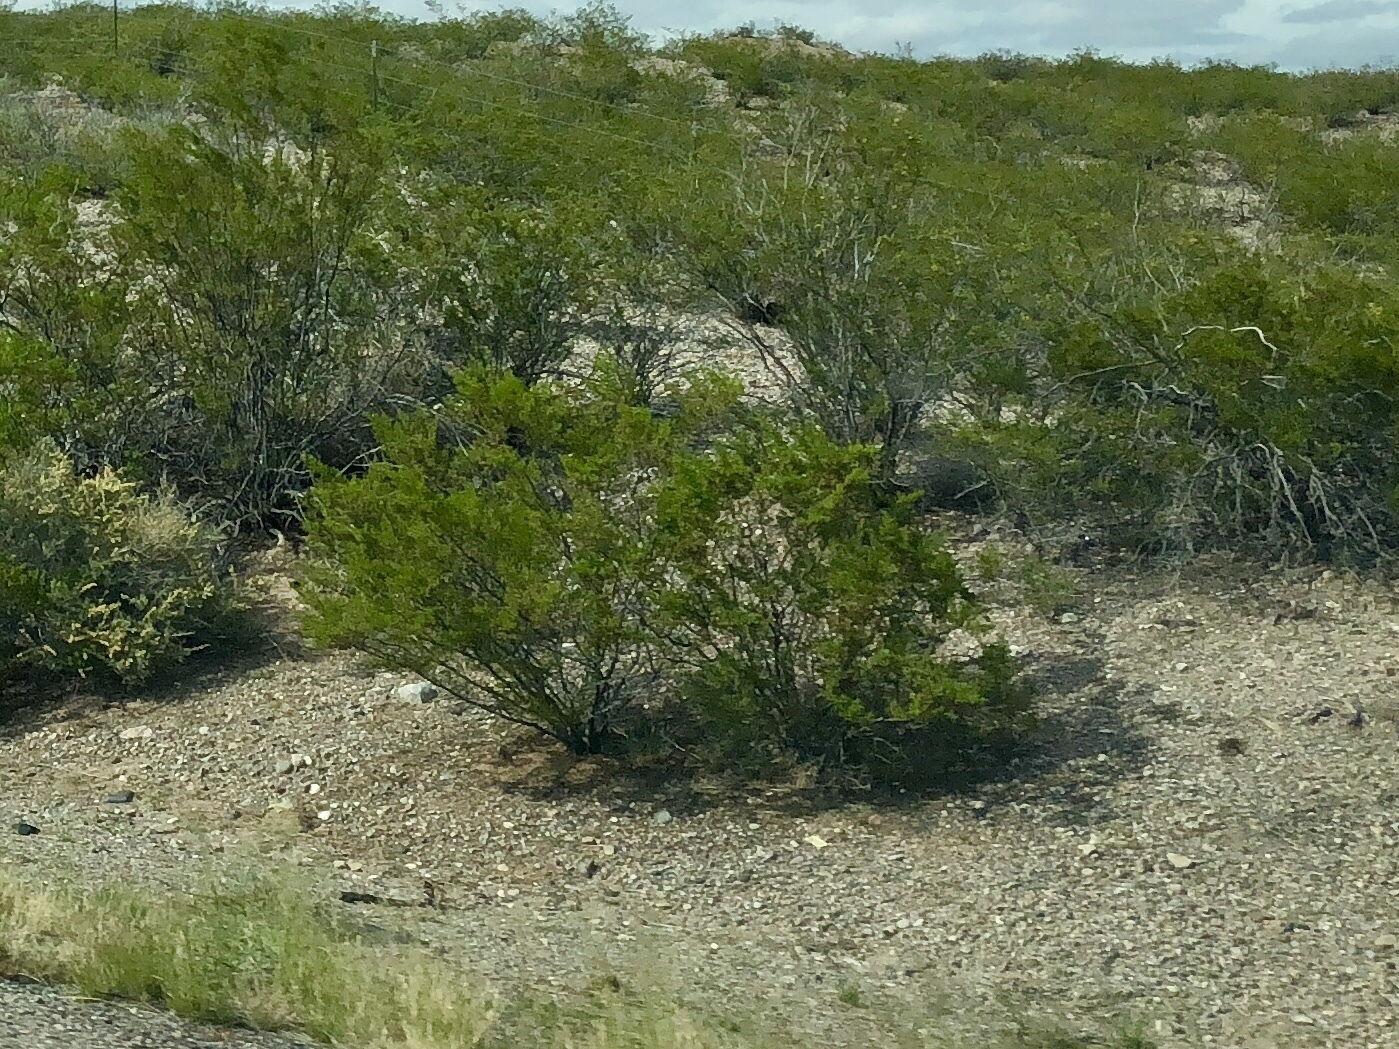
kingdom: Plantae
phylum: Tracheophyta
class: Magnoliopsida
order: Zygophyllales
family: Zygophyllaceae
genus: Larrea
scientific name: Larrea tridentata
